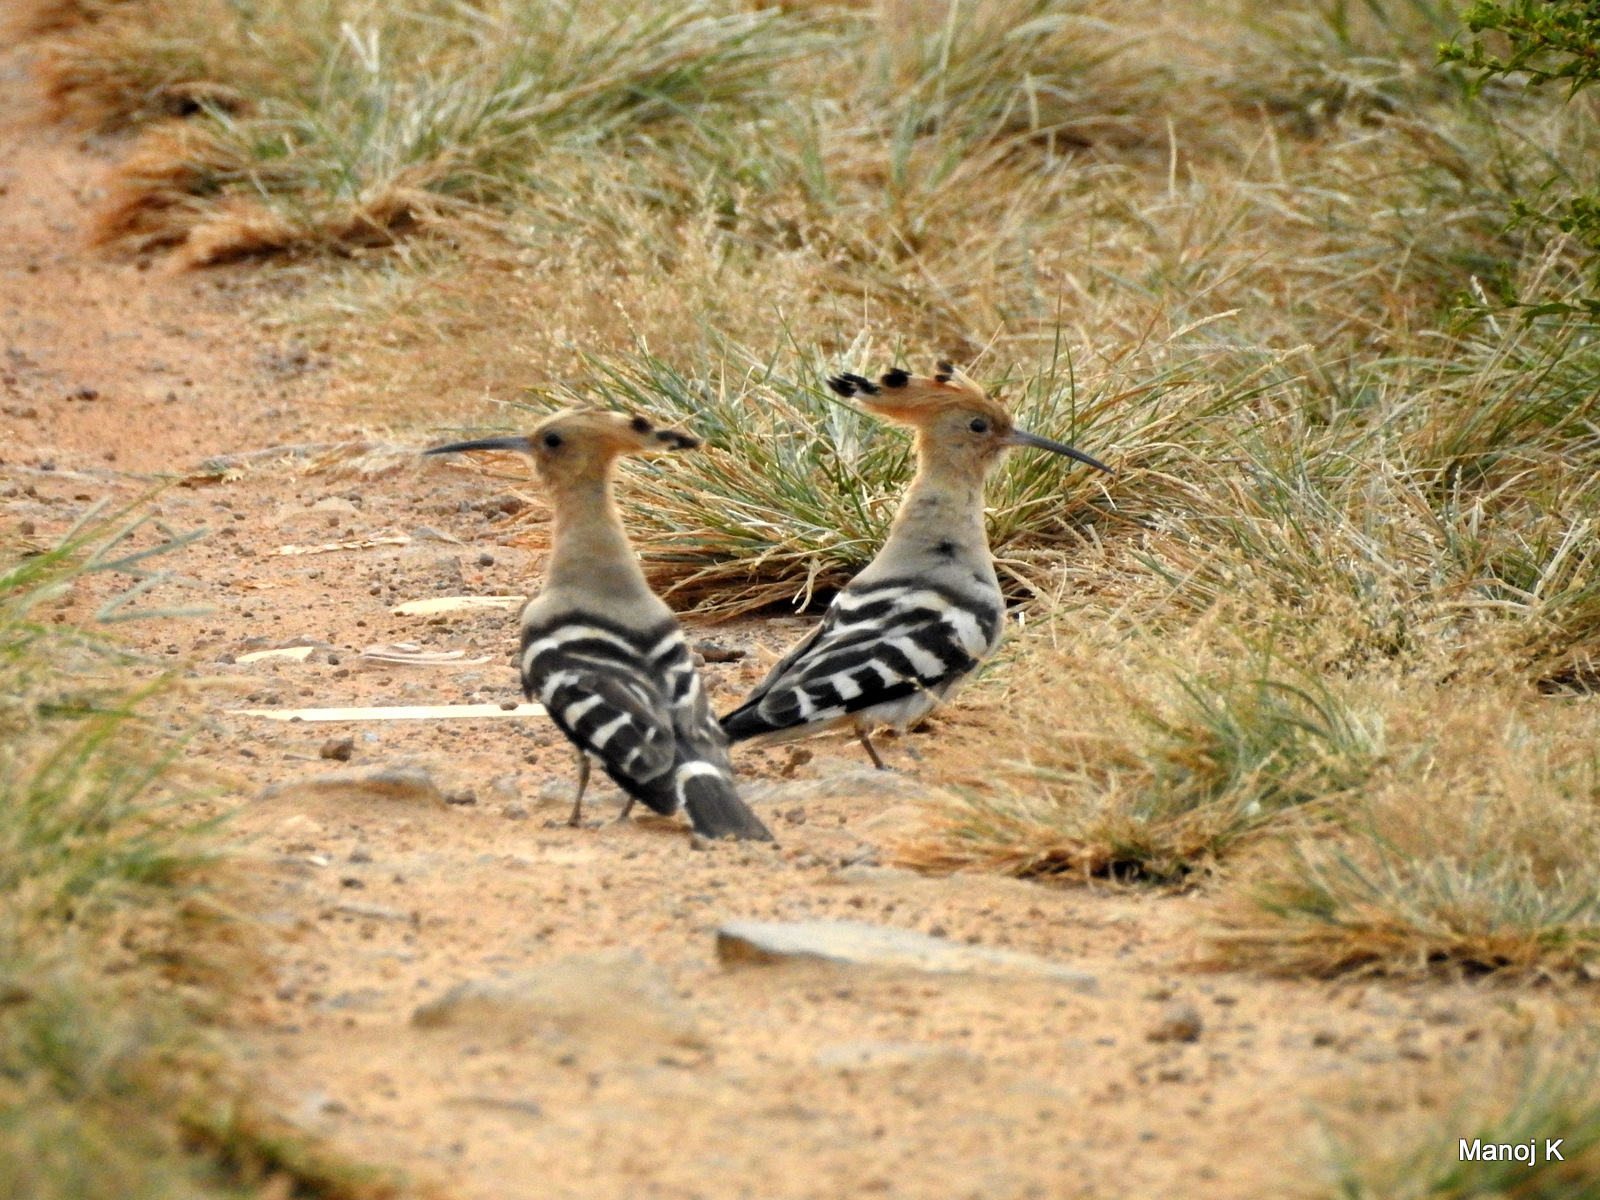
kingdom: Animalia
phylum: Chordata
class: Aves
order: Bucerotiformes
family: Upupidae
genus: Upupa
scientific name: Upupa epops
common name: Eurasian hoopoe
